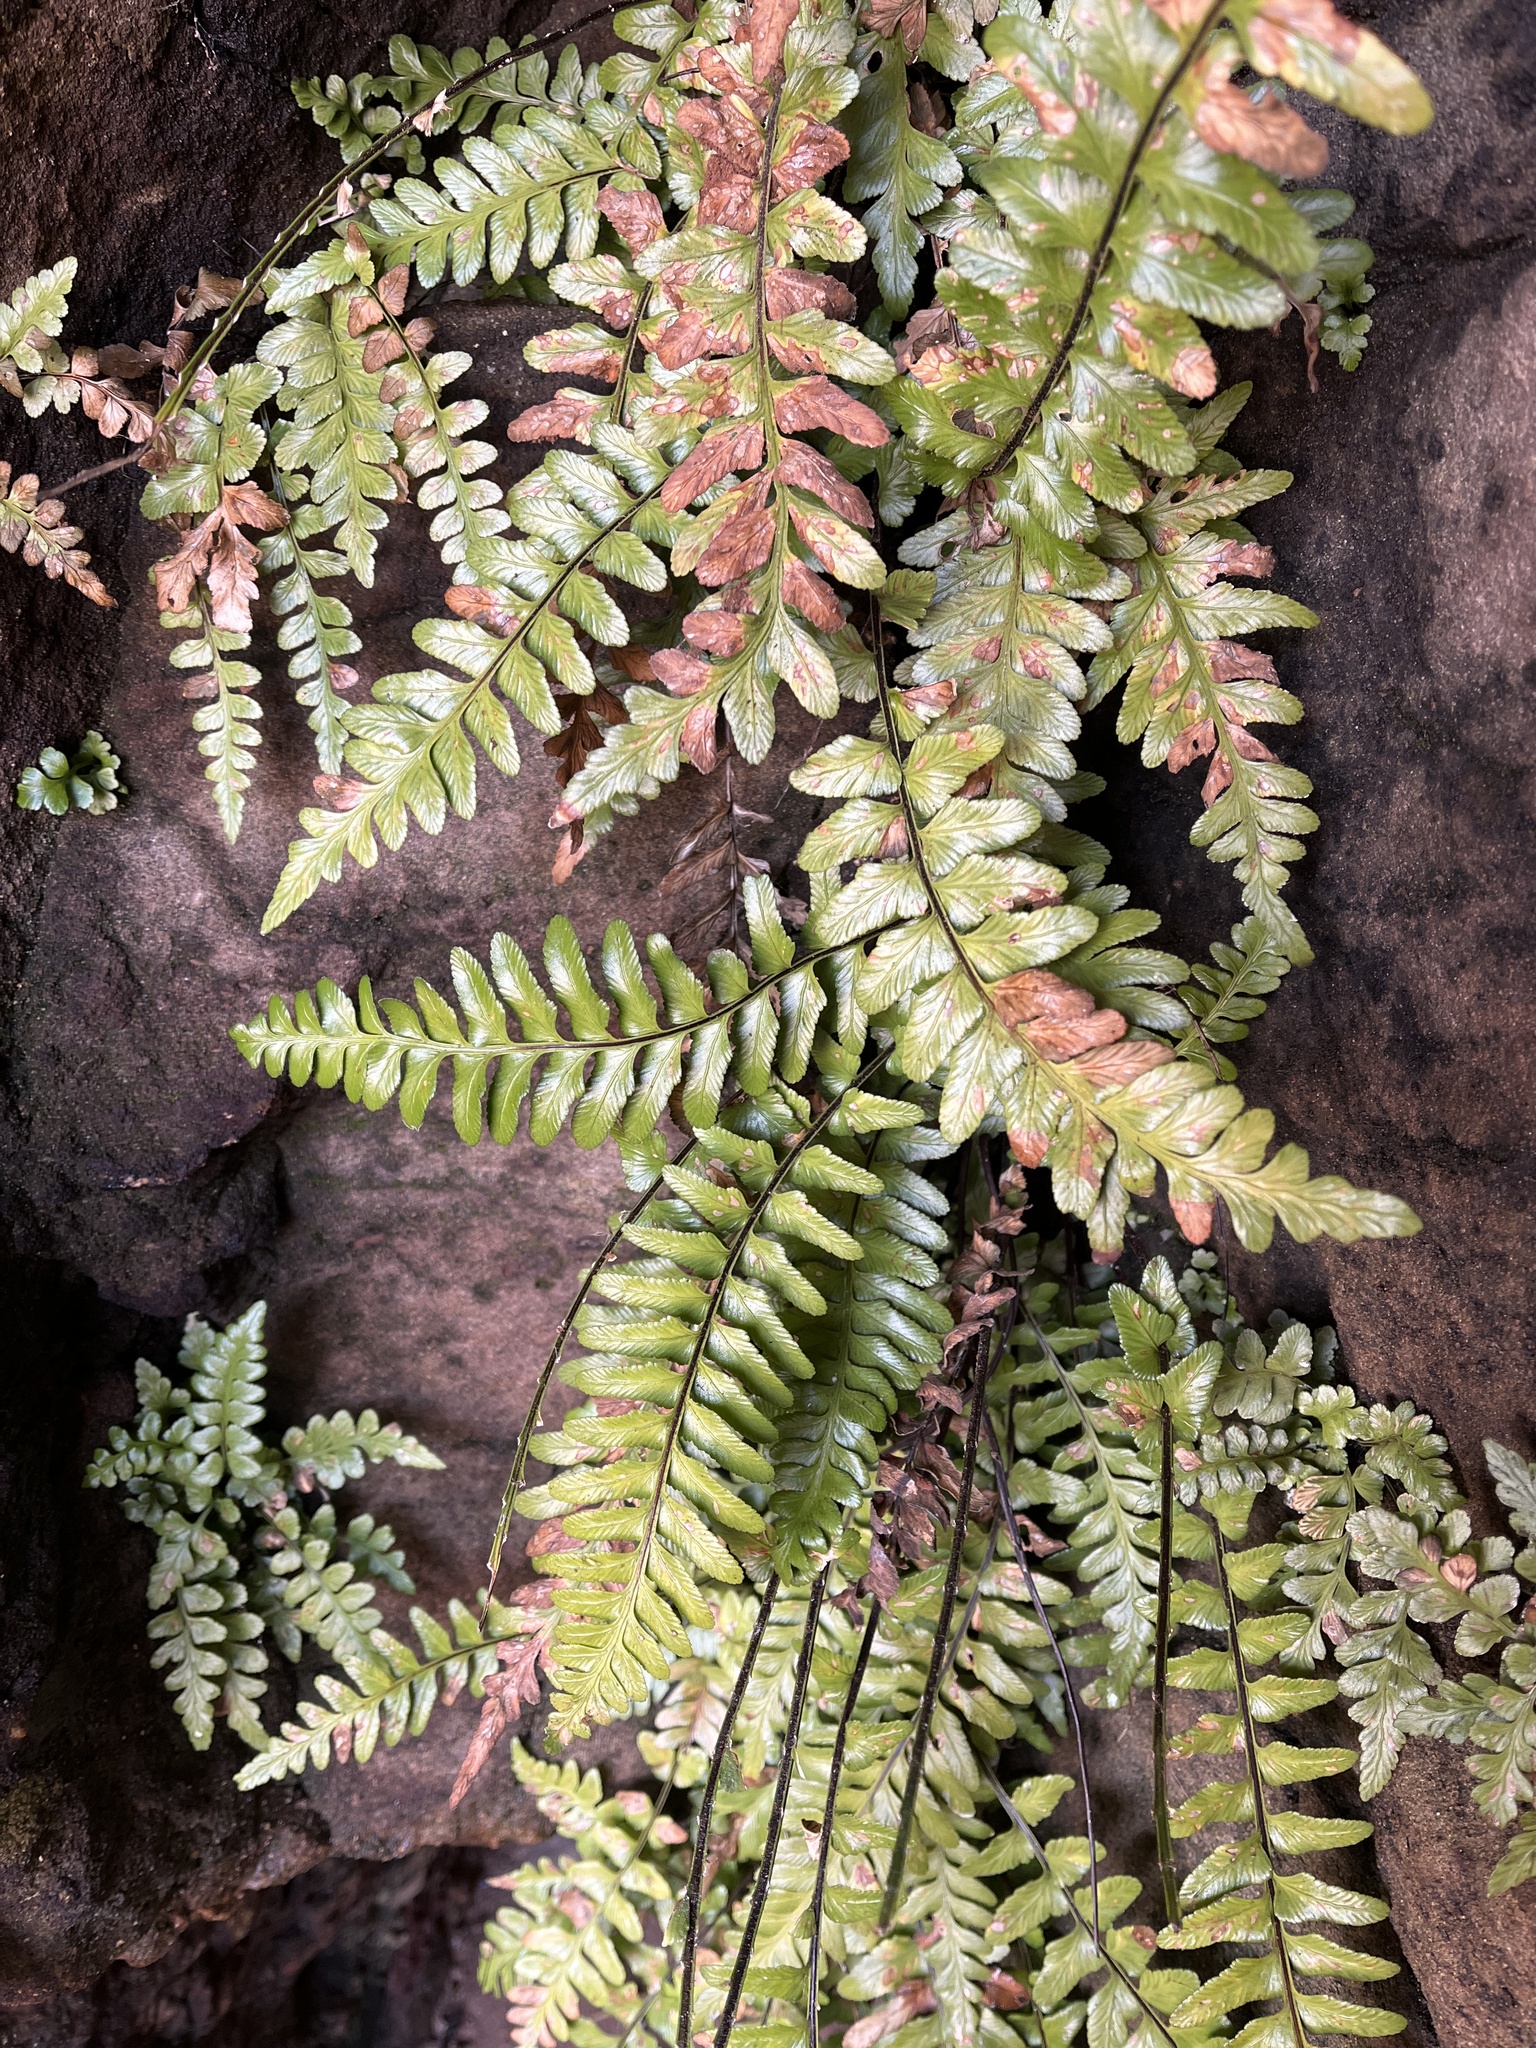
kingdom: Plantae
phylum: Tracheophyta
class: Polypodiopsida
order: Polypodiales
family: Aspleniaceae
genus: Asplenium
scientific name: Asplenium marinum
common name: Sea spleenwort
